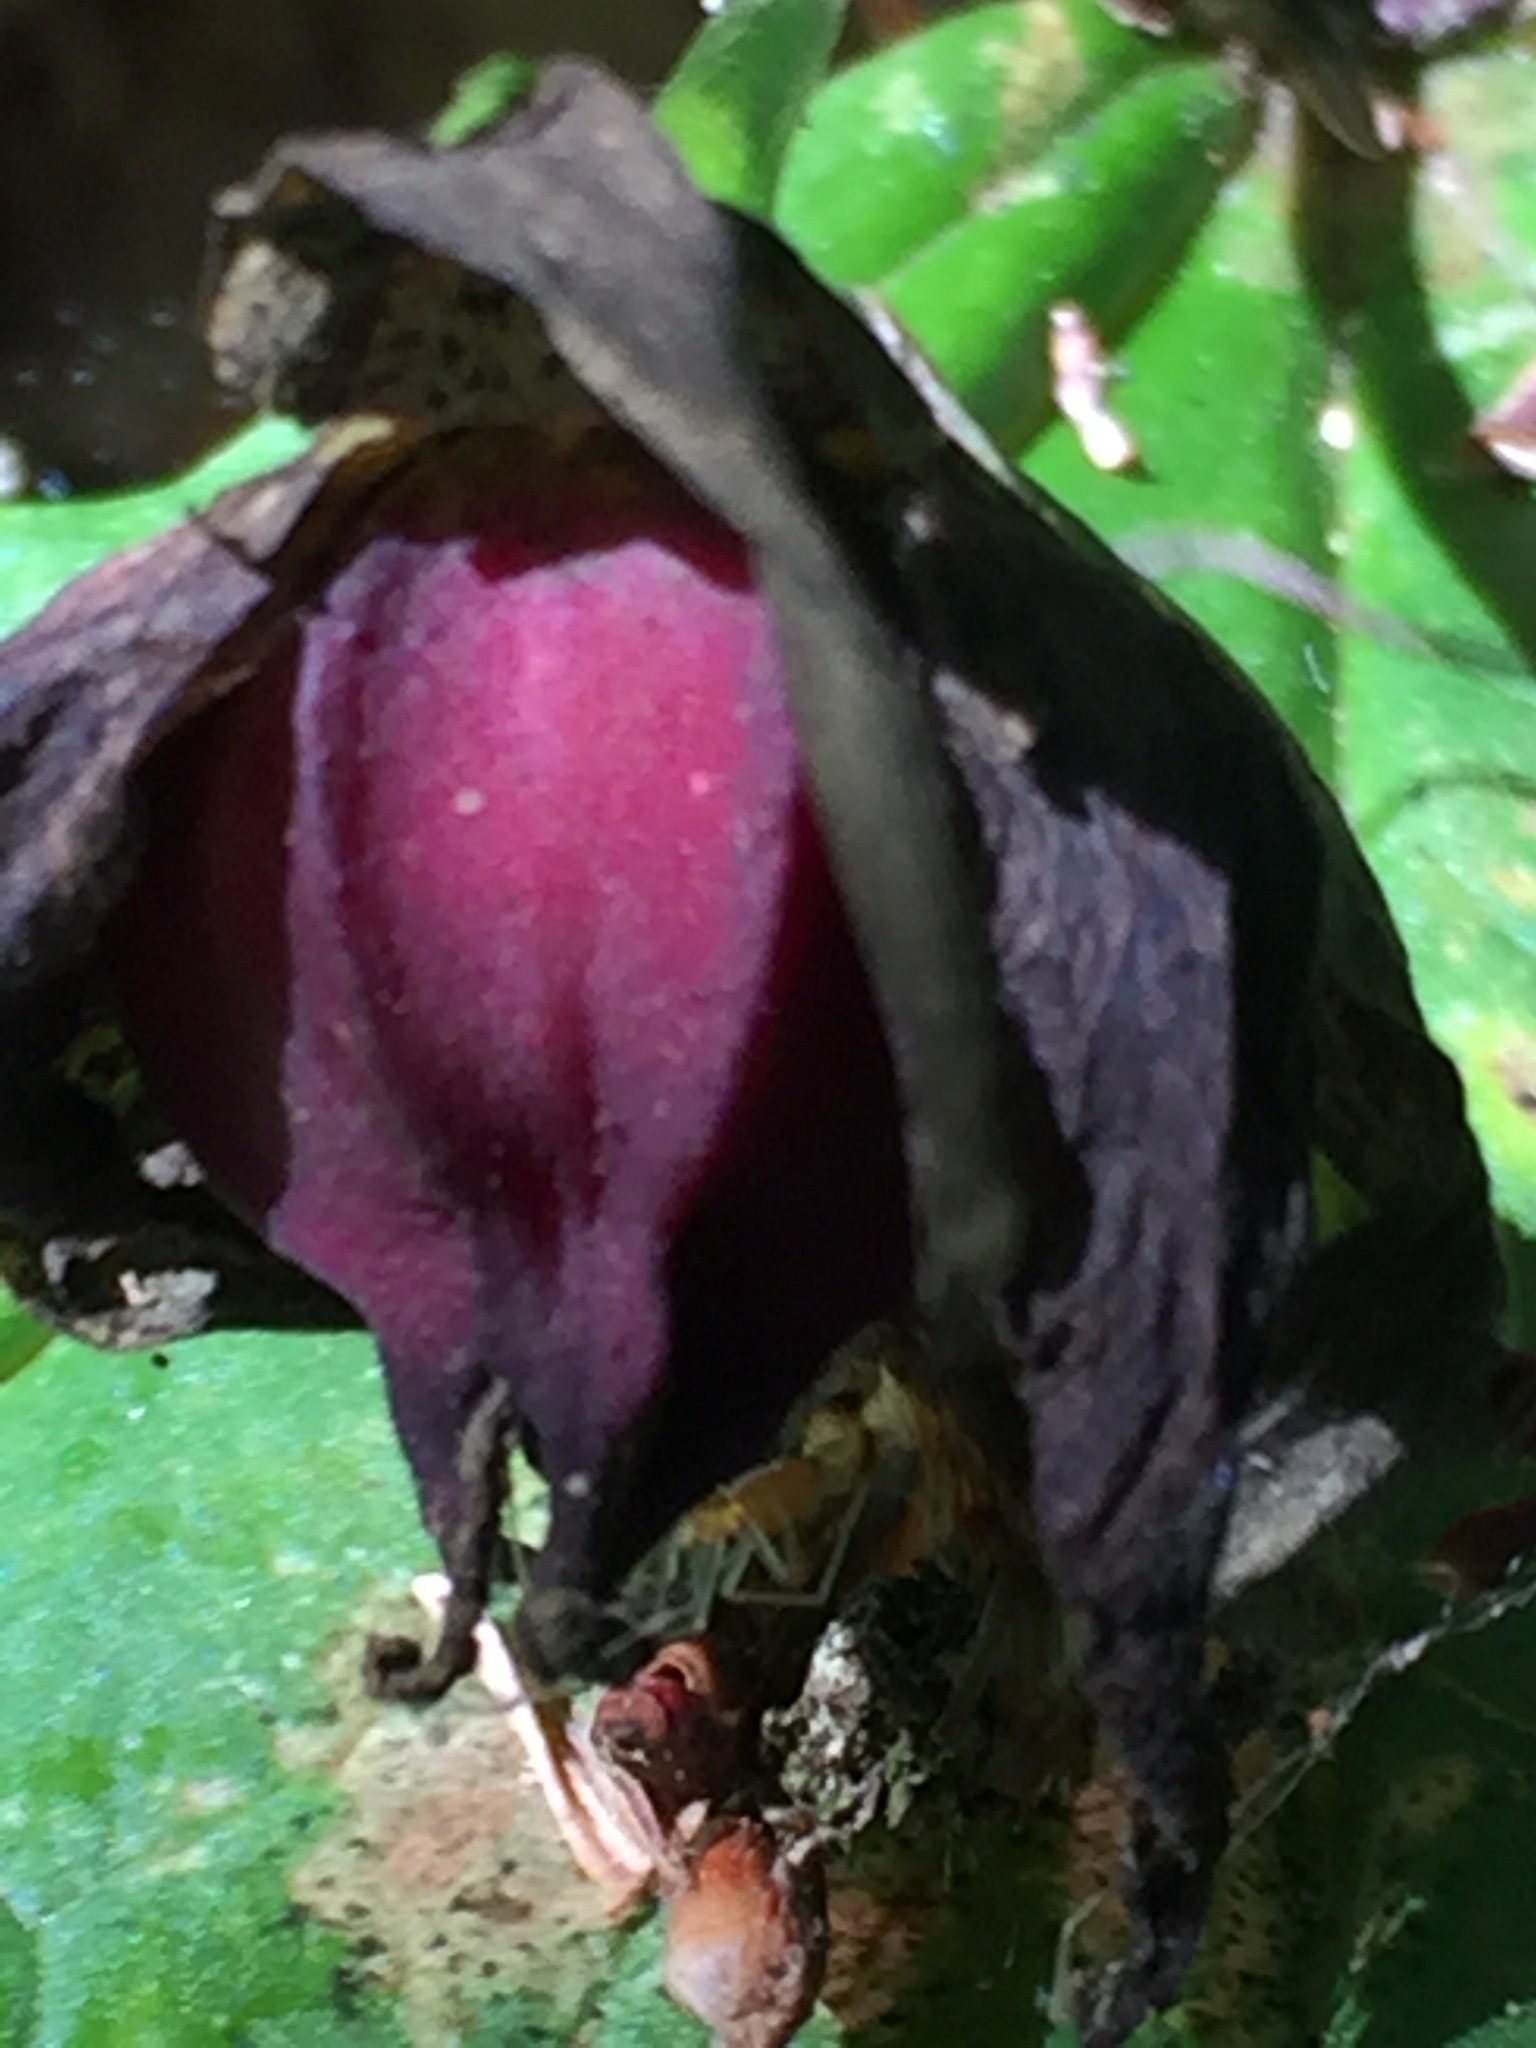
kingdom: Plantae
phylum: Tracheophyta
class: Liliopsida
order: Liliales
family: Melanthiaceae
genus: Trillium
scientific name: Trillium erectum
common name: Purple trillium
